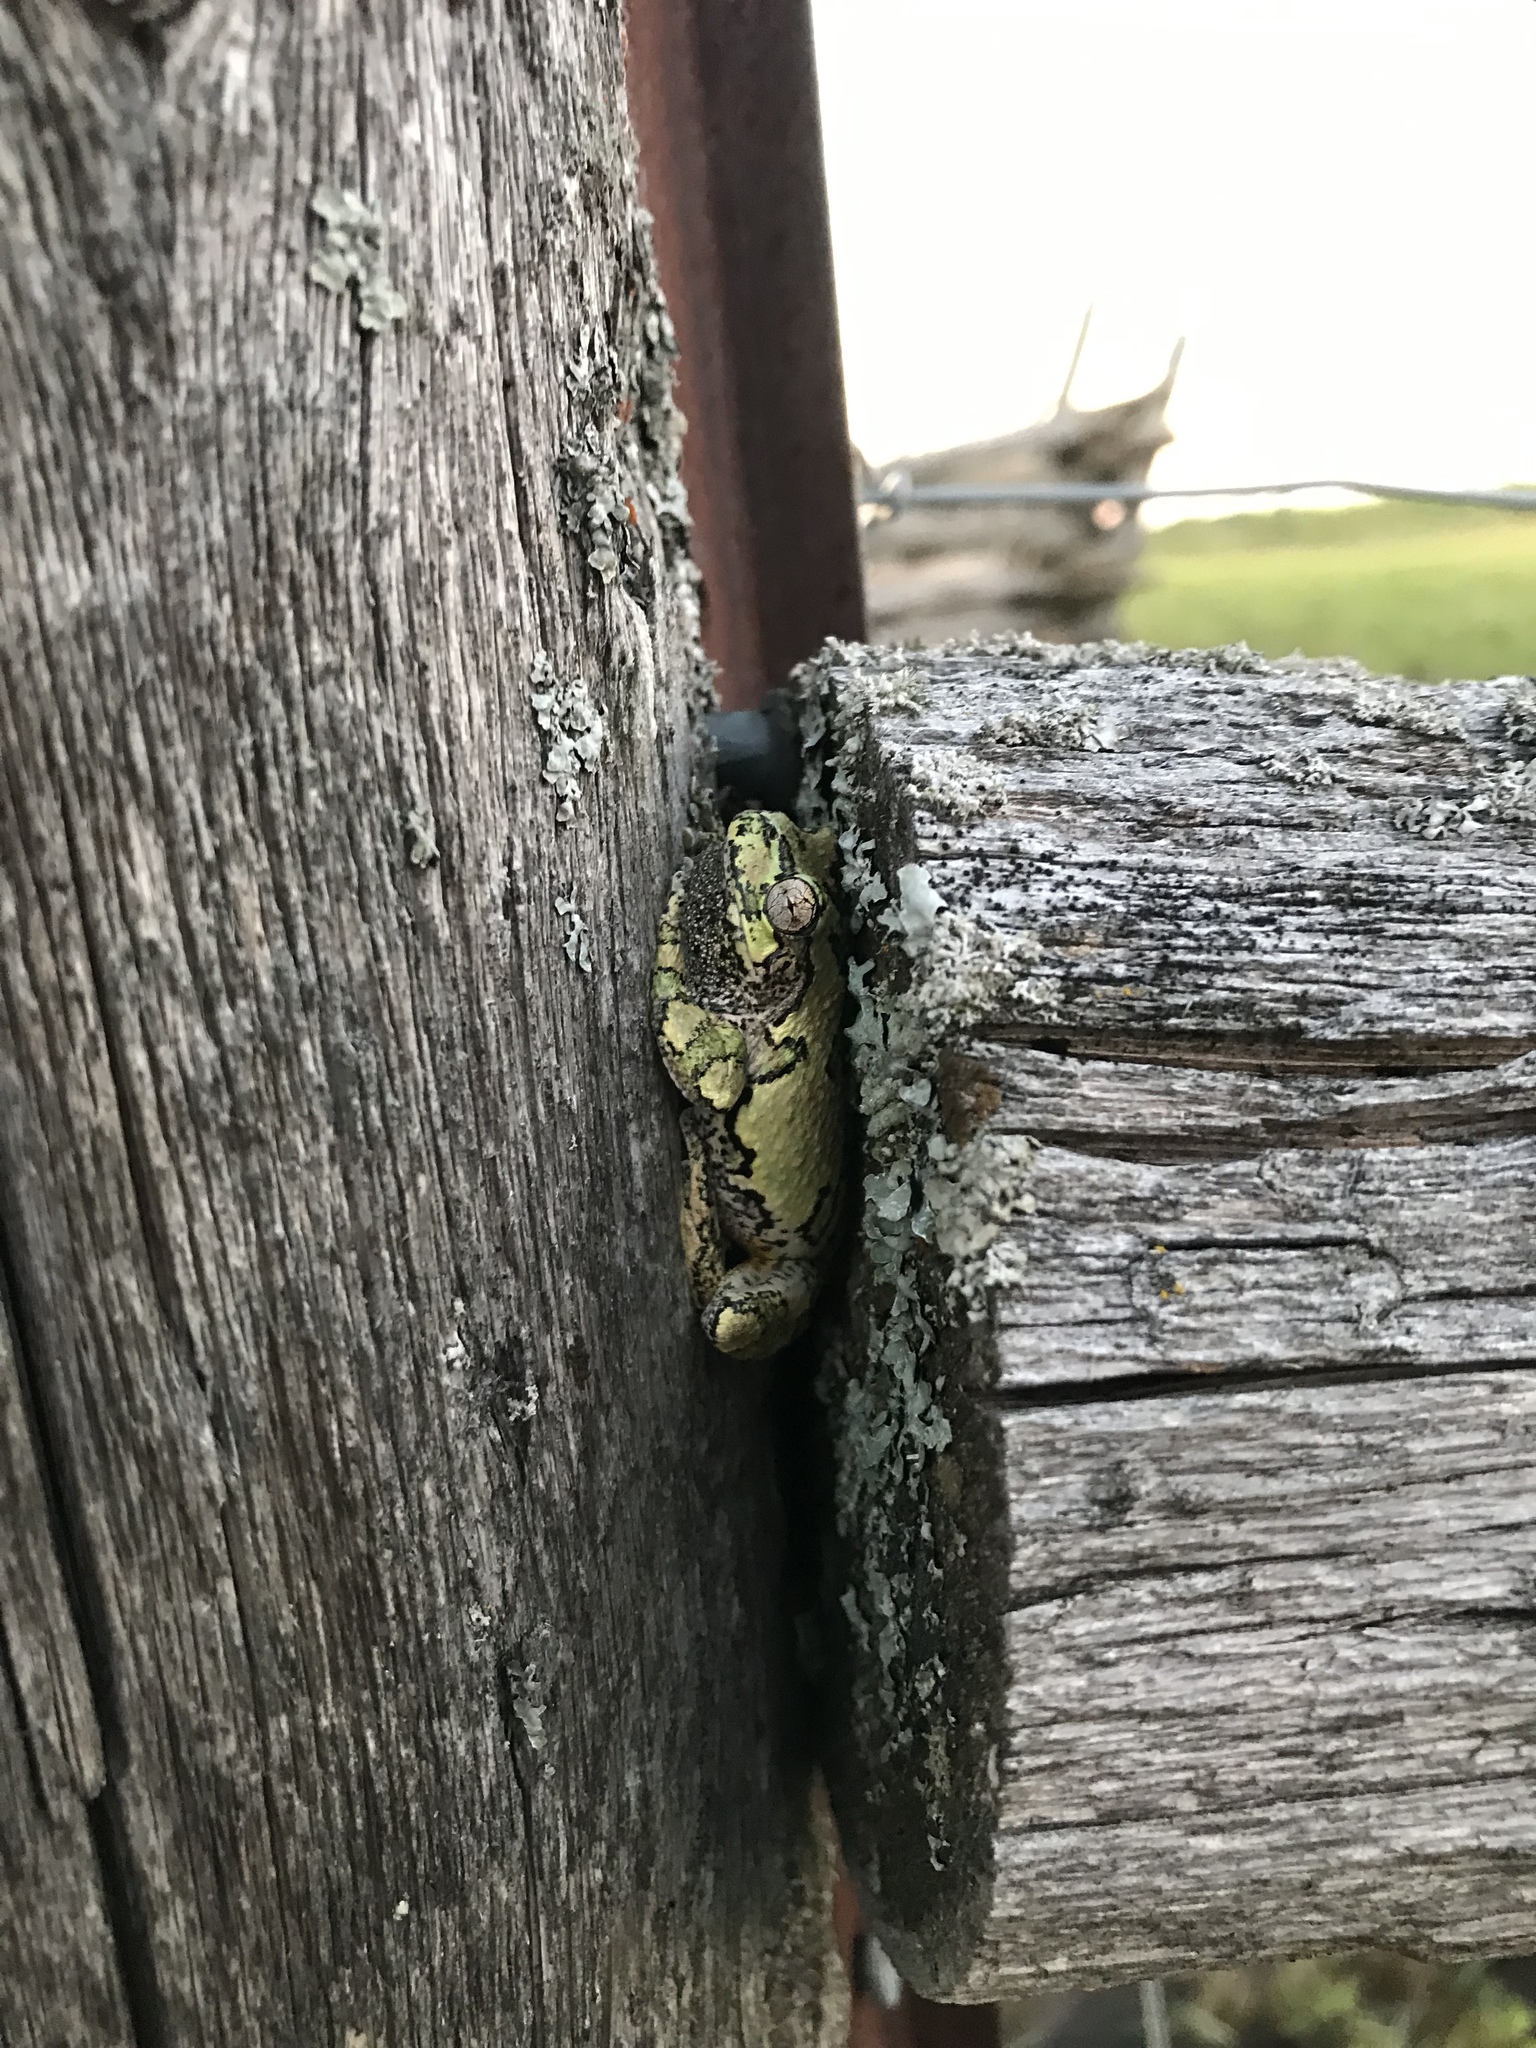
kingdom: Animalia
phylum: Chordata
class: Amphibia
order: Anura
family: Hylidae
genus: Dryophytes
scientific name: Dryophytes versicolor
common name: Gray treefrog
